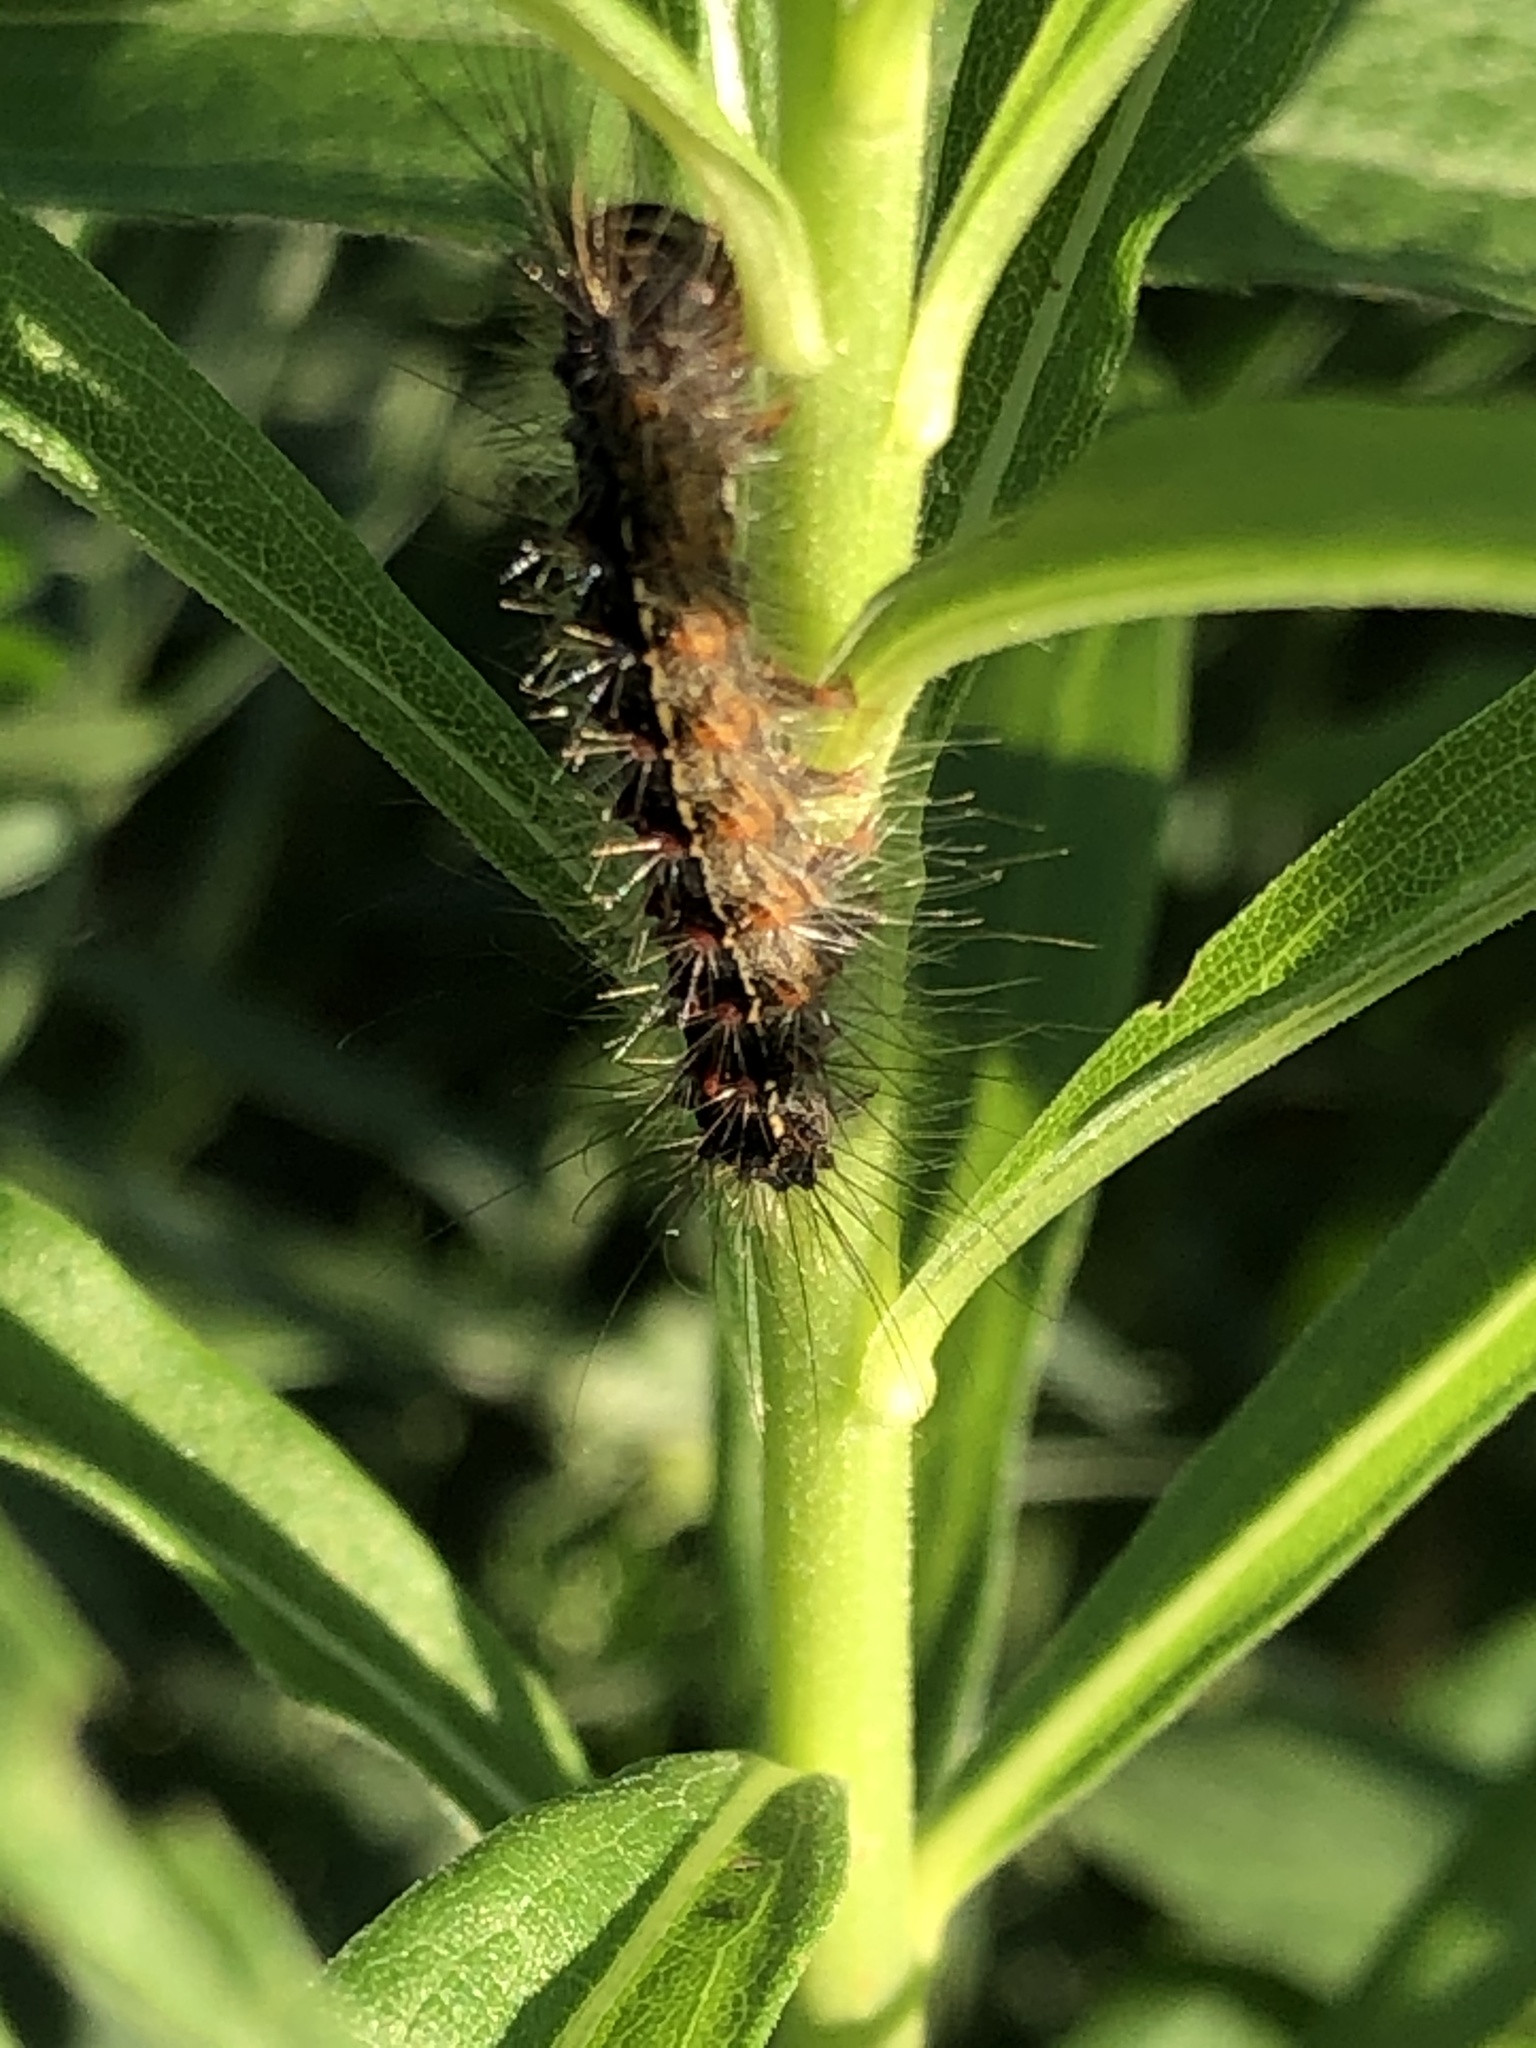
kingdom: Animalia
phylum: Arthropoda
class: Insecta
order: Lepidoptera
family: Erebidae
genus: Lymantria
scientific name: Lymantria dispar
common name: Gypsy moth
